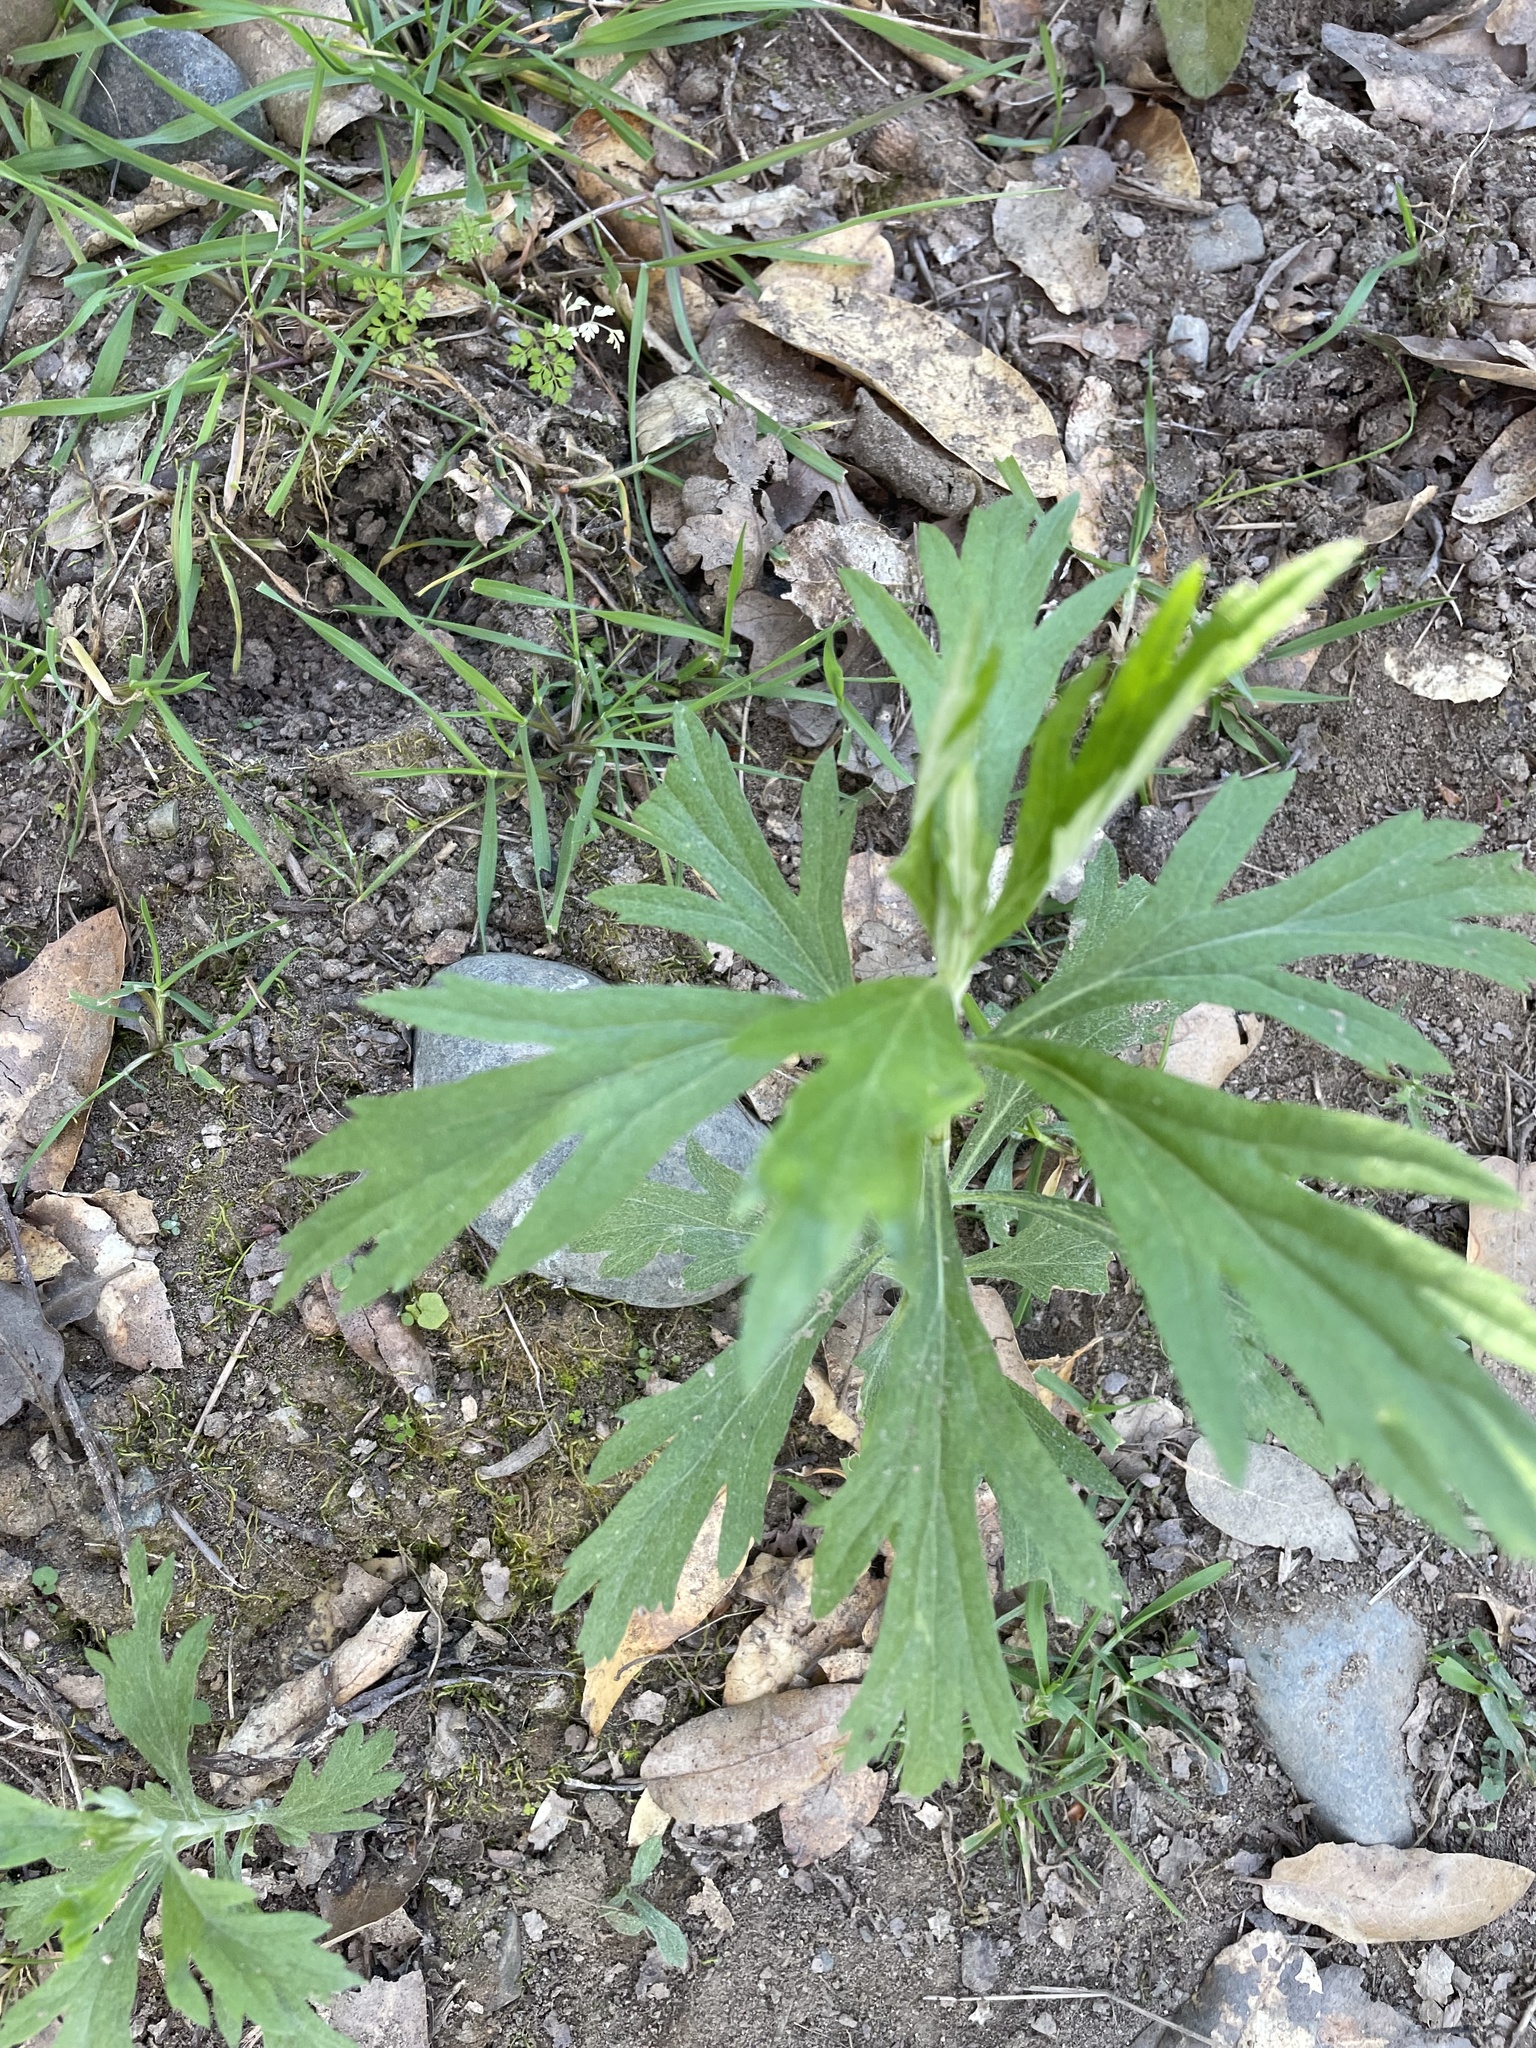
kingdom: Plantae
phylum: Tracheophyta
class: Magnoliopsida
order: Asterales
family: Asteraceae
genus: Artemisia
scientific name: Artemisia douglasiana
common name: Northwest mugwort
